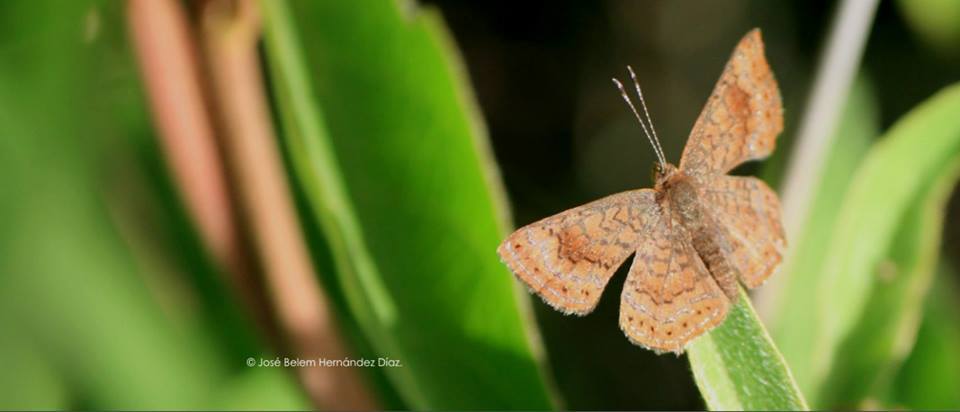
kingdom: Animalia
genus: Calephelis
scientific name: Calephelis
